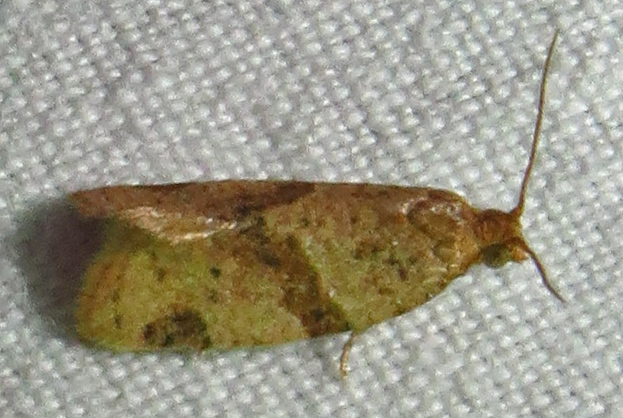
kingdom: Animalia
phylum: Arthropoda
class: Insecta
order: Lepidoptera
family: Tortricidae
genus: Clepsis
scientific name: Clepsis peritana
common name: Garden tortrix
